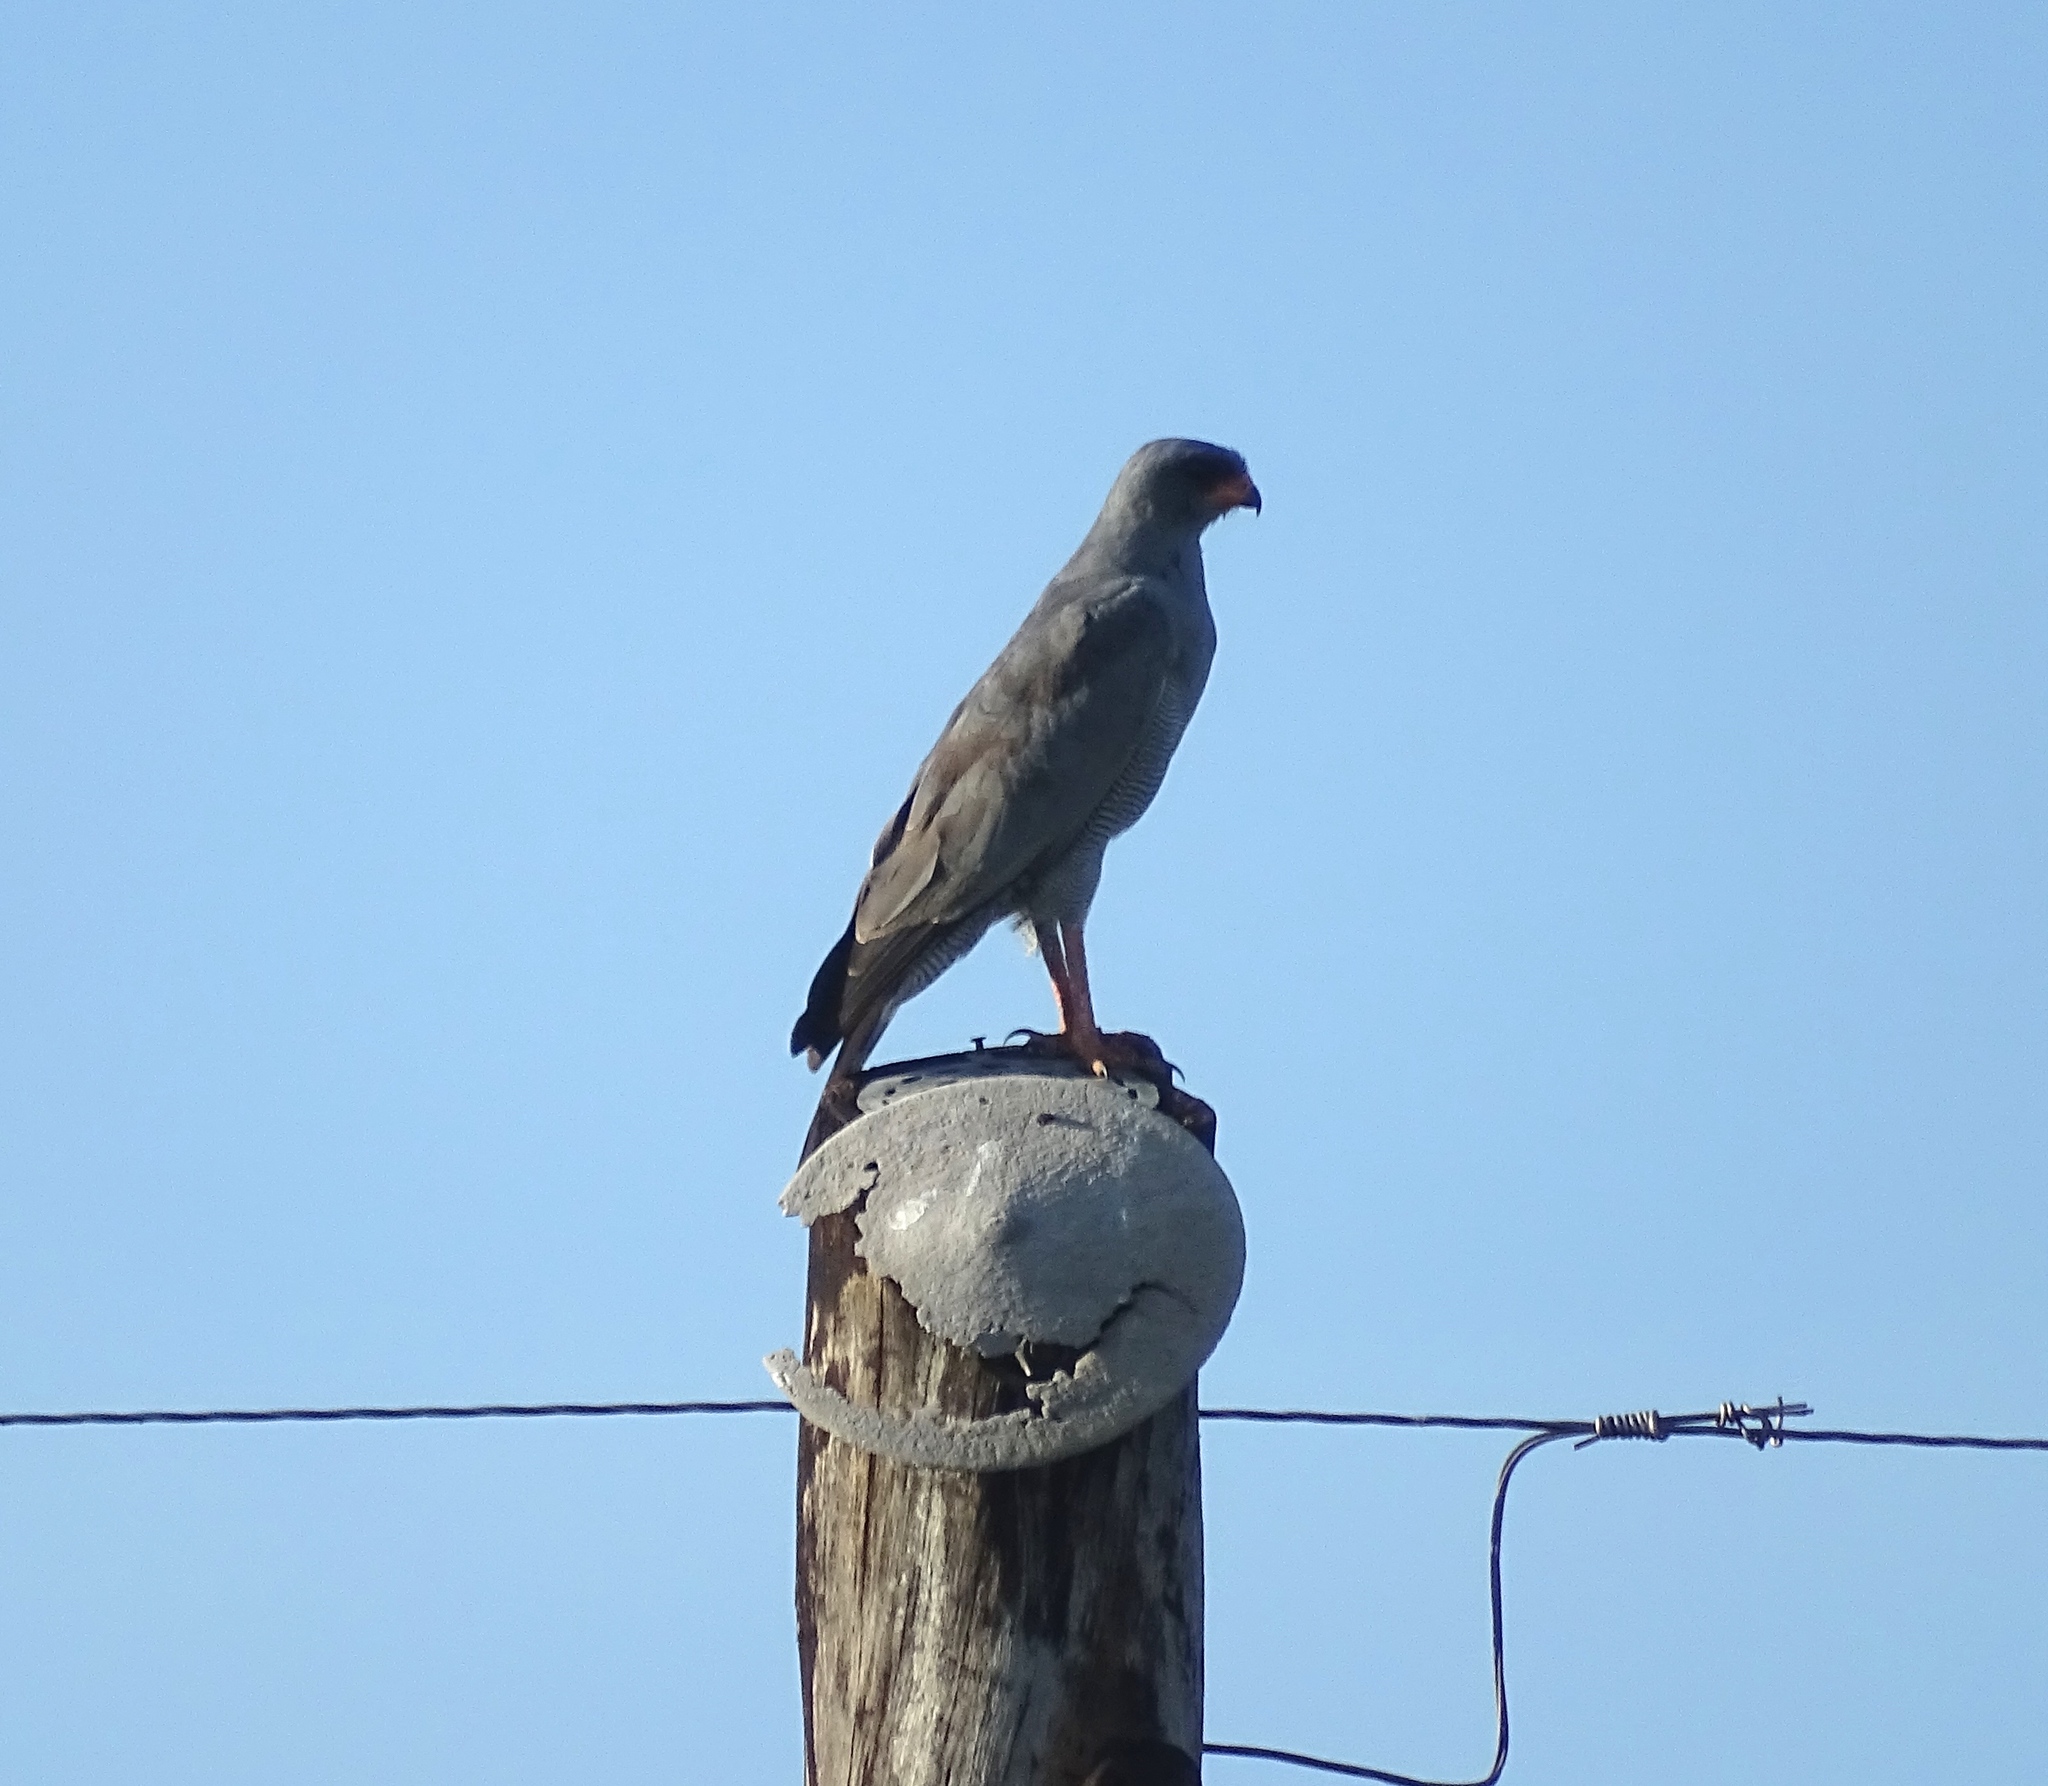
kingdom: Animalia
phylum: Chordata
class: Aves
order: Accipitriformes
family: Accipitridae
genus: Melierax
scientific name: Melierax metabates
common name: Dark chanting-goshawk
